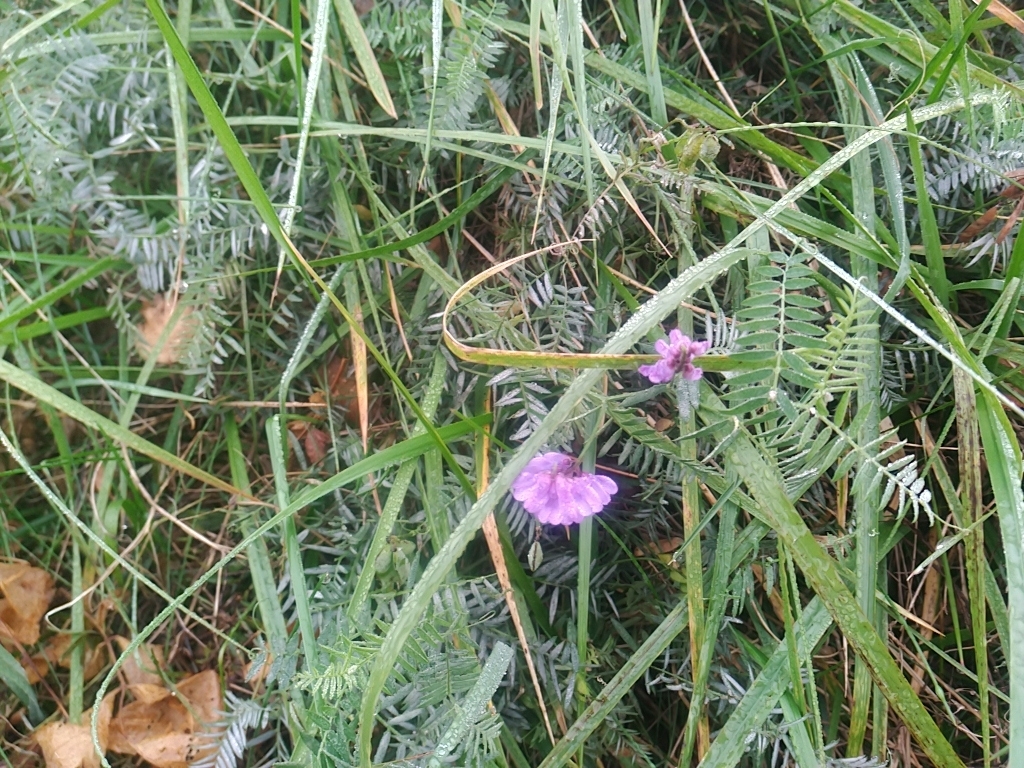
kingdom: Plantae
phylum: Tracheophyta
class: Magnoliopsida
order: Fabales
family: Fabaceae
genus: Vicia
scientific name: Vicia cracca
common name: Bird vetch
